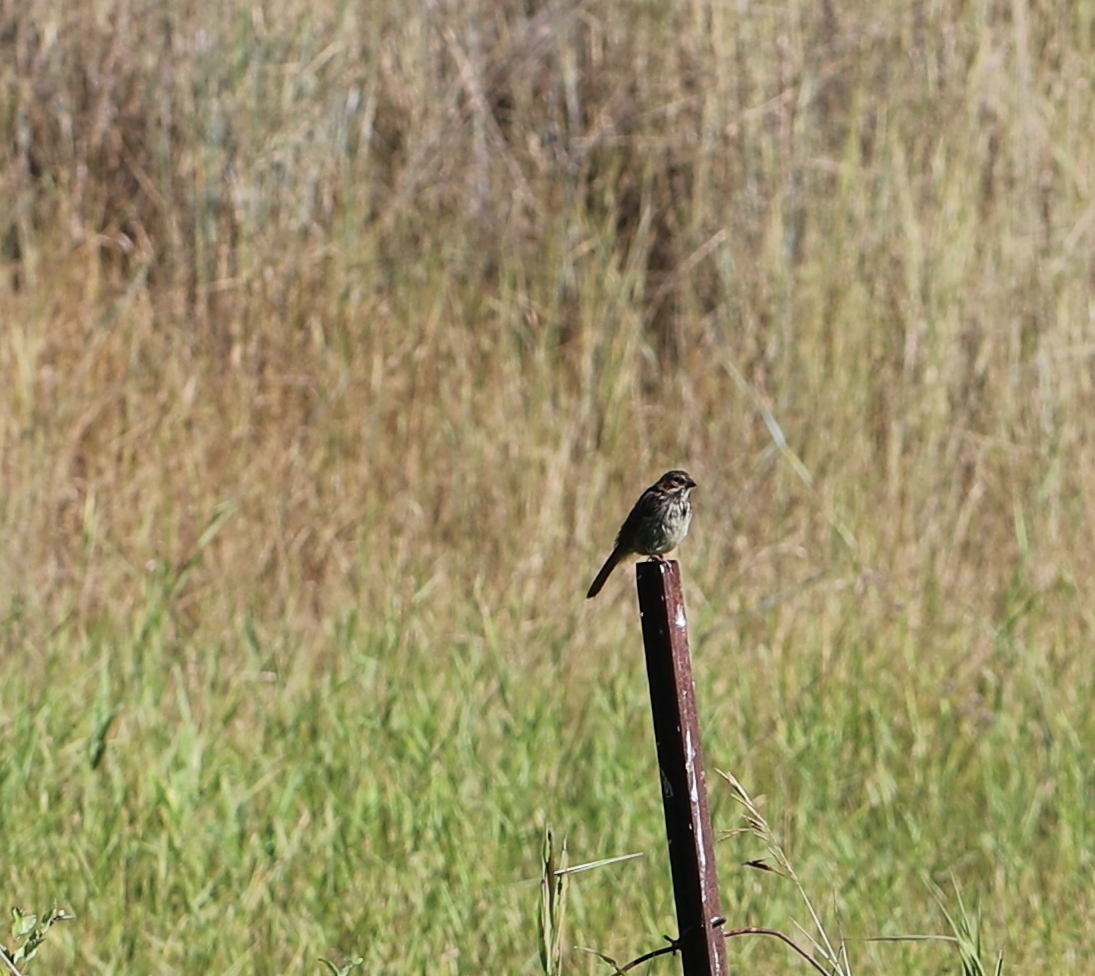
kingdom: Animalia
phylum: Chordata
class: Aves
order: Passeriformes
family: Passerellidae
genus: Melospiza
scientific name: Melospiza melodia
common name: Song sparrow
